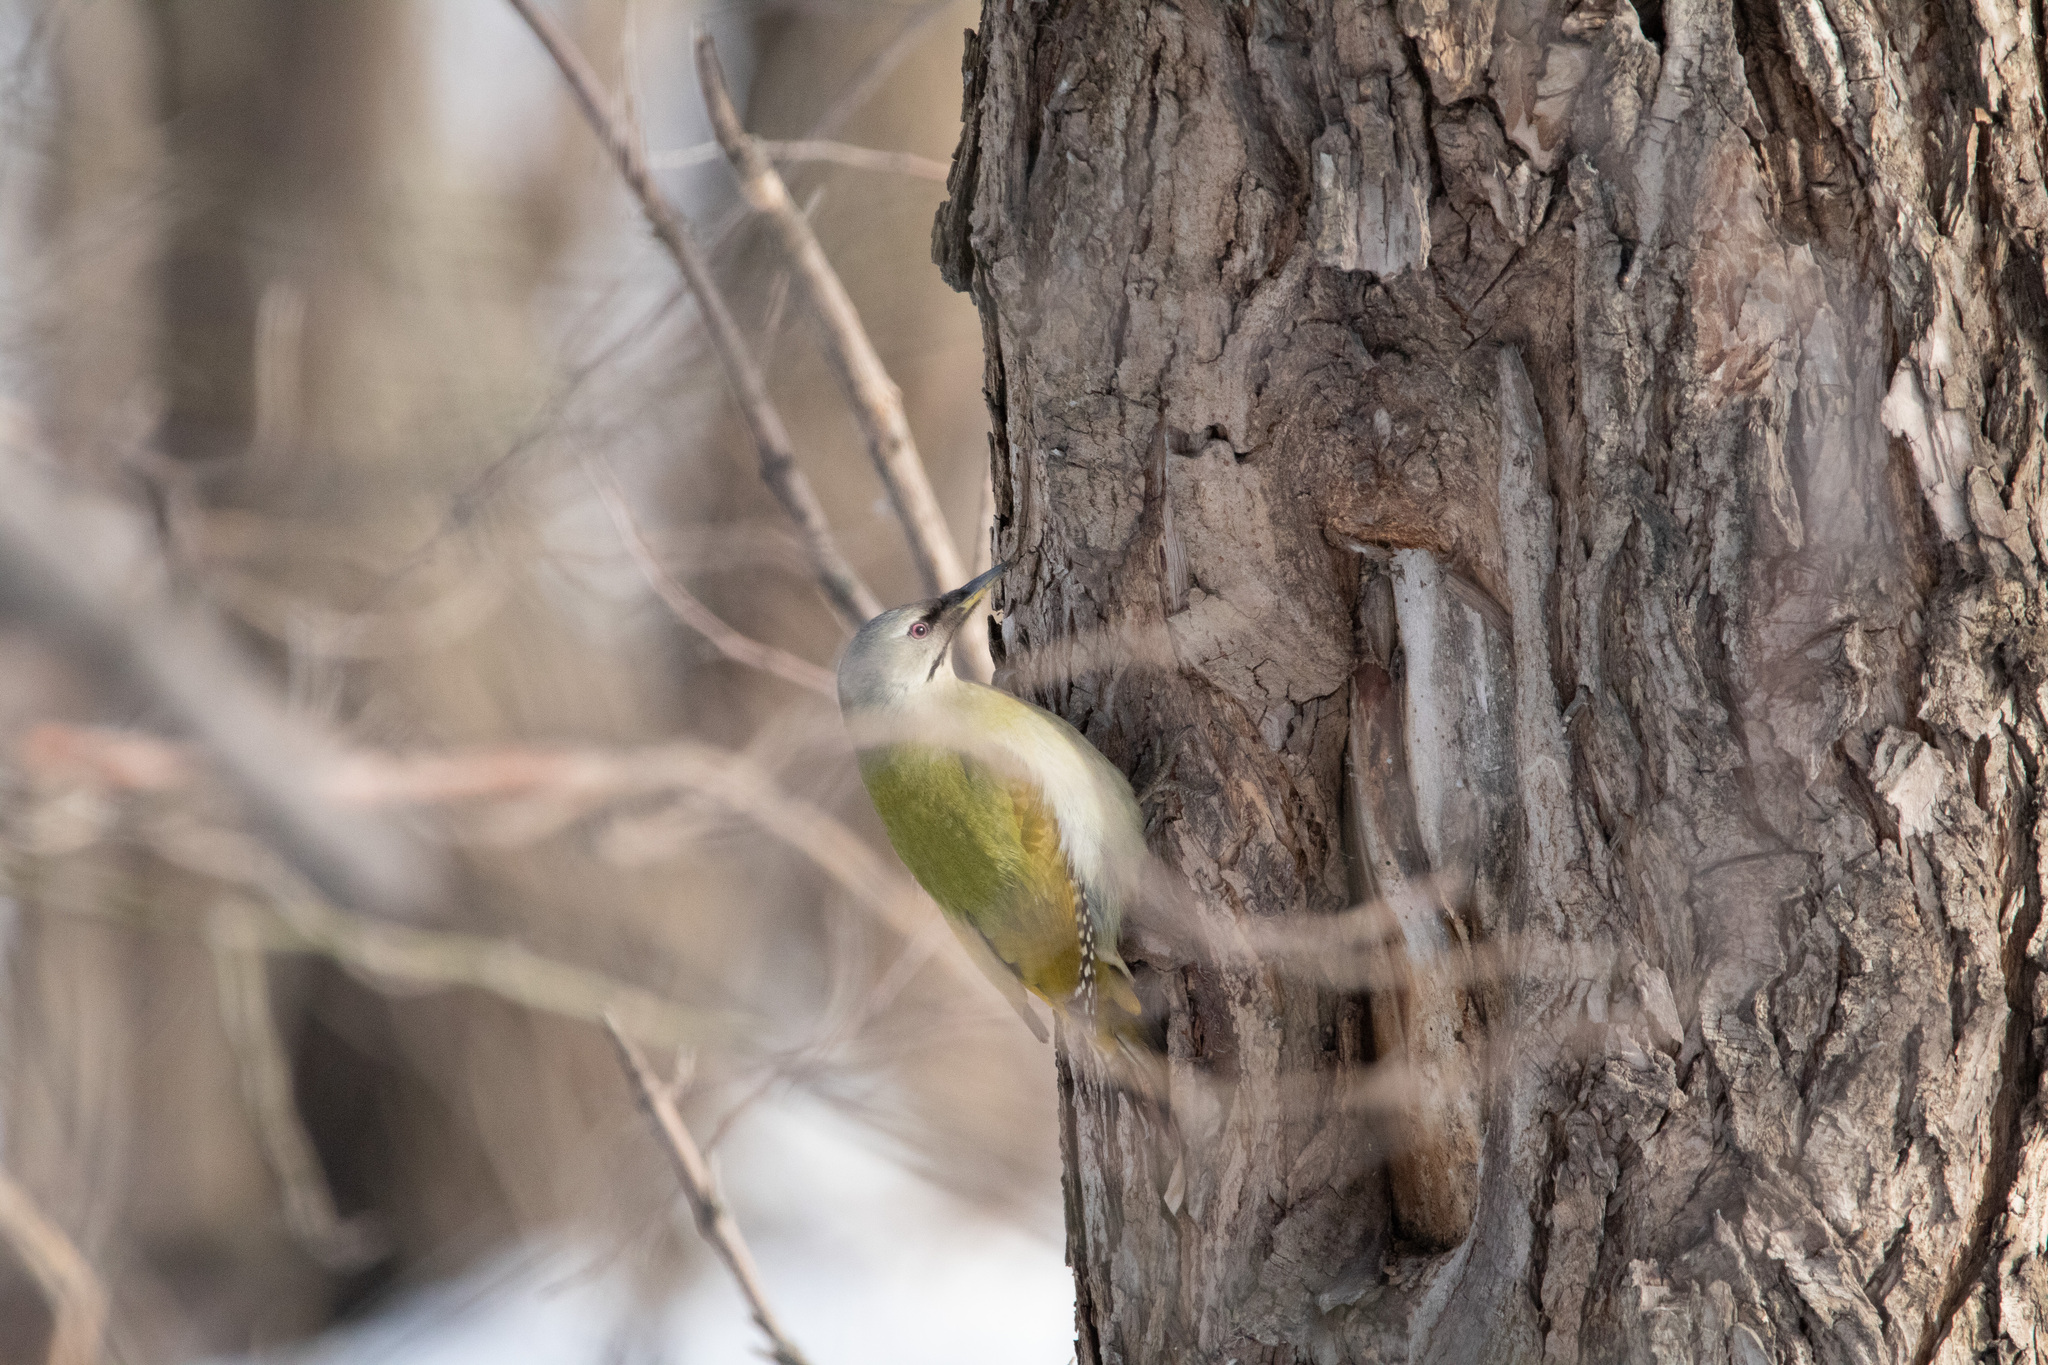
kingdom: Animalia
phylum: Chordata
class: Aves
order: Piciformes
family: Picidae
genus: Picus
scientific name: Picus canus
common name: Grey-headed woodpecker
